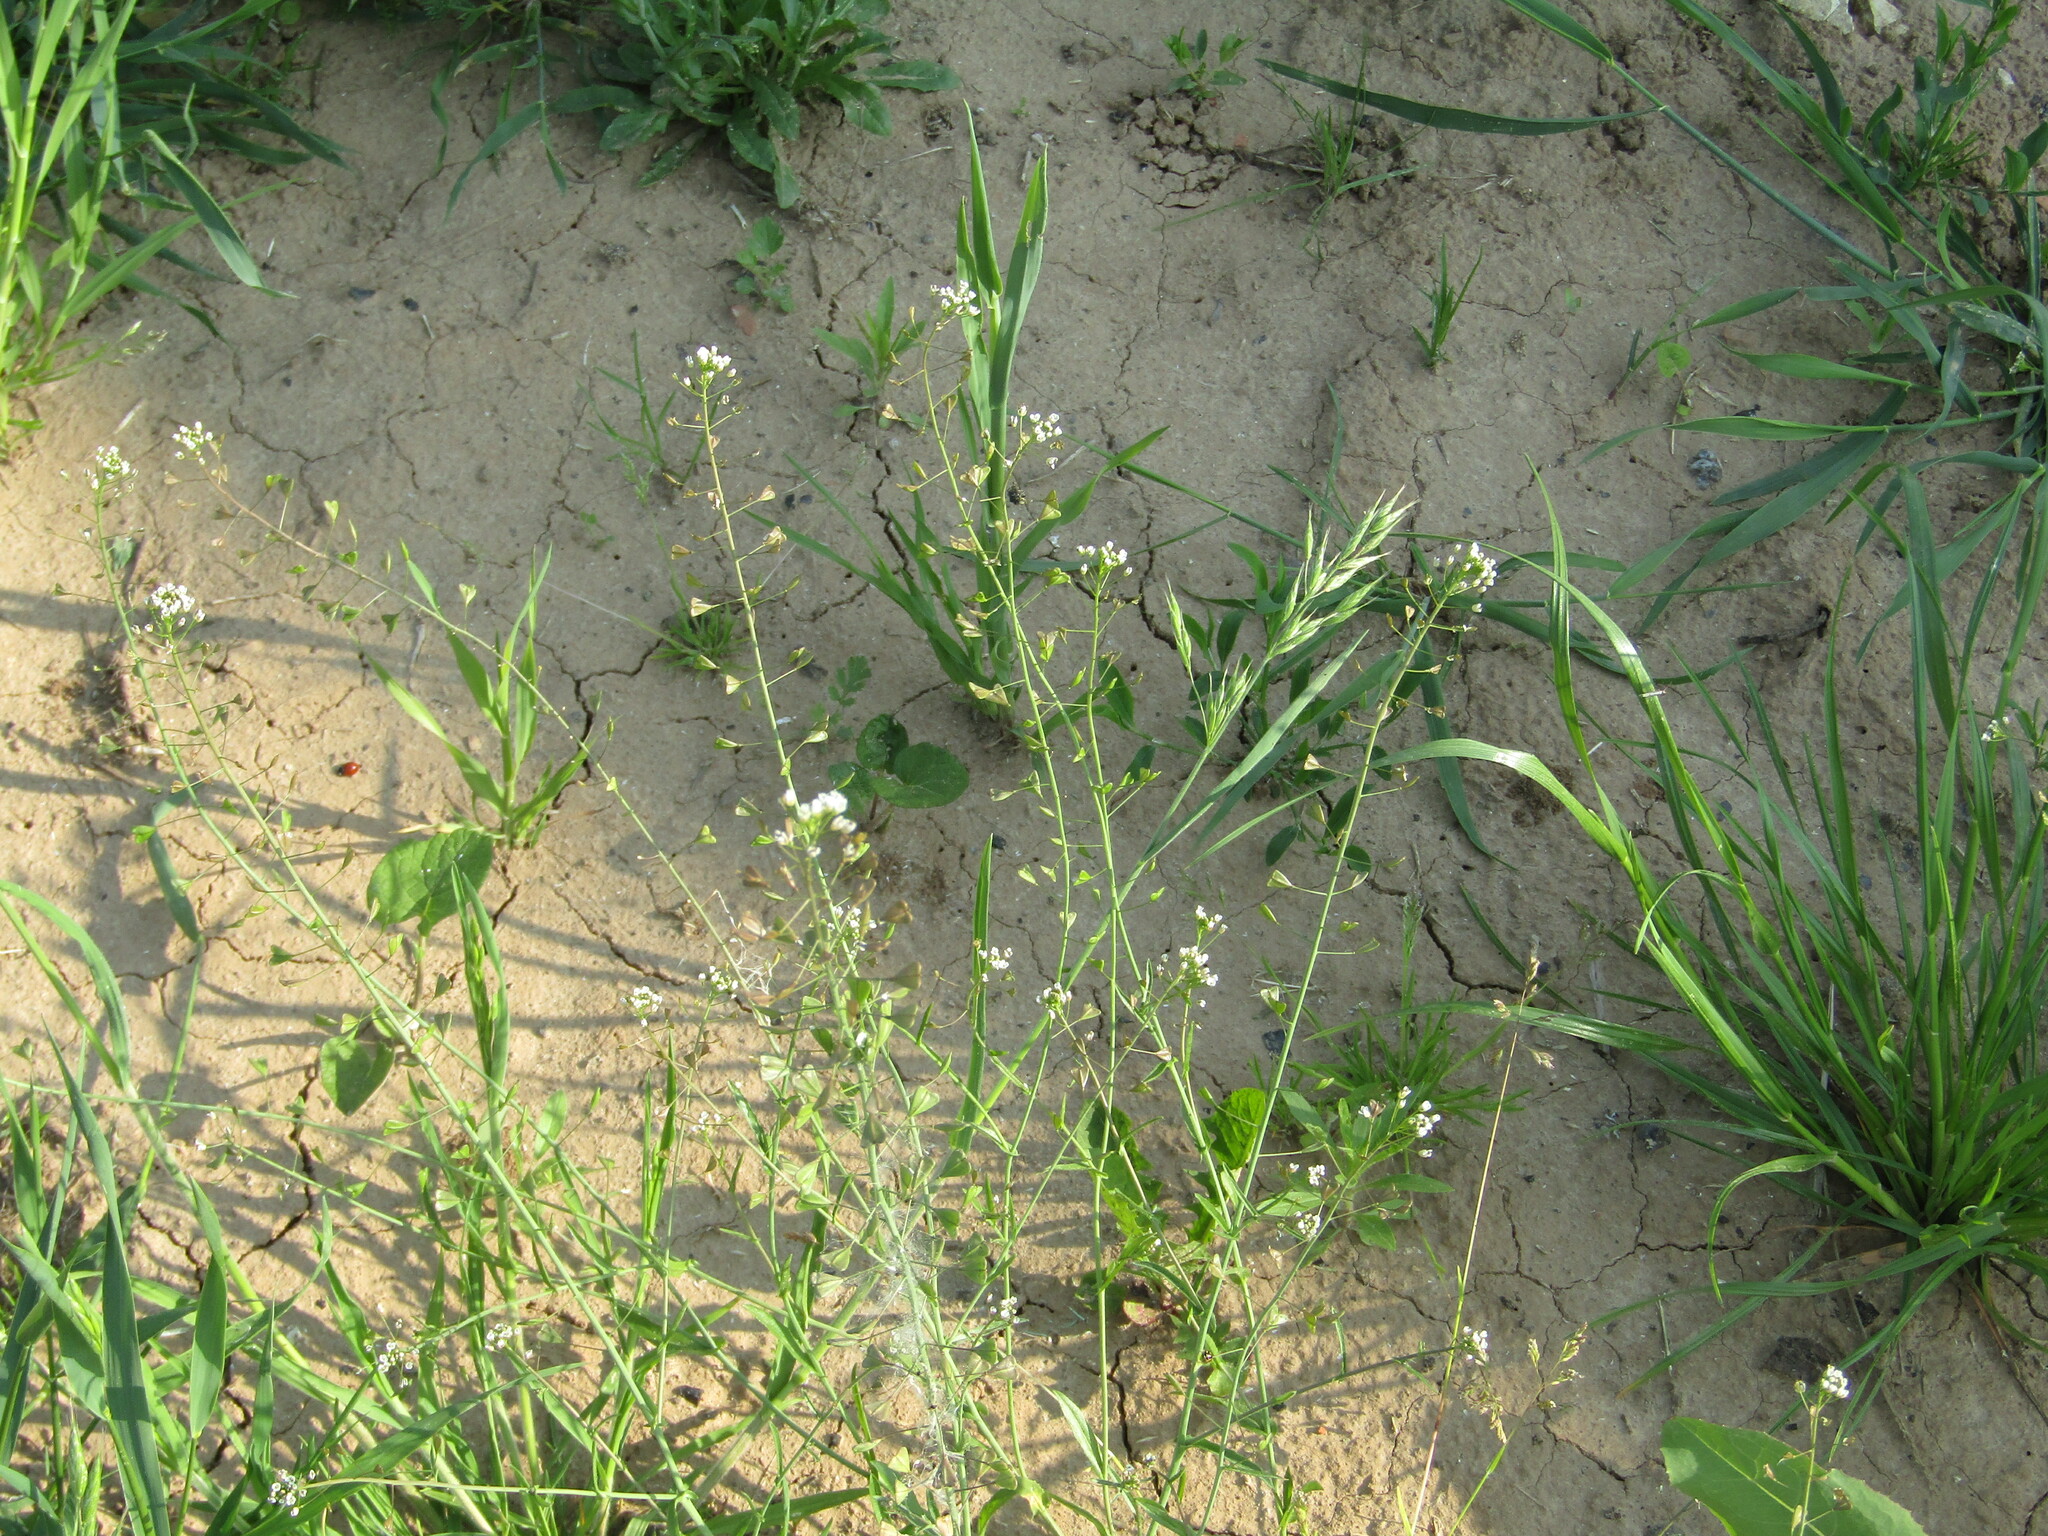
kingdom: Plantae
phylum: Tracheophyta
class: Magnoliopsida
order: Brassicales
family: Brassicaceae
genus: Capsella
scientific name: Capsella bursa-pastoris
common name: Shepherd's purse
